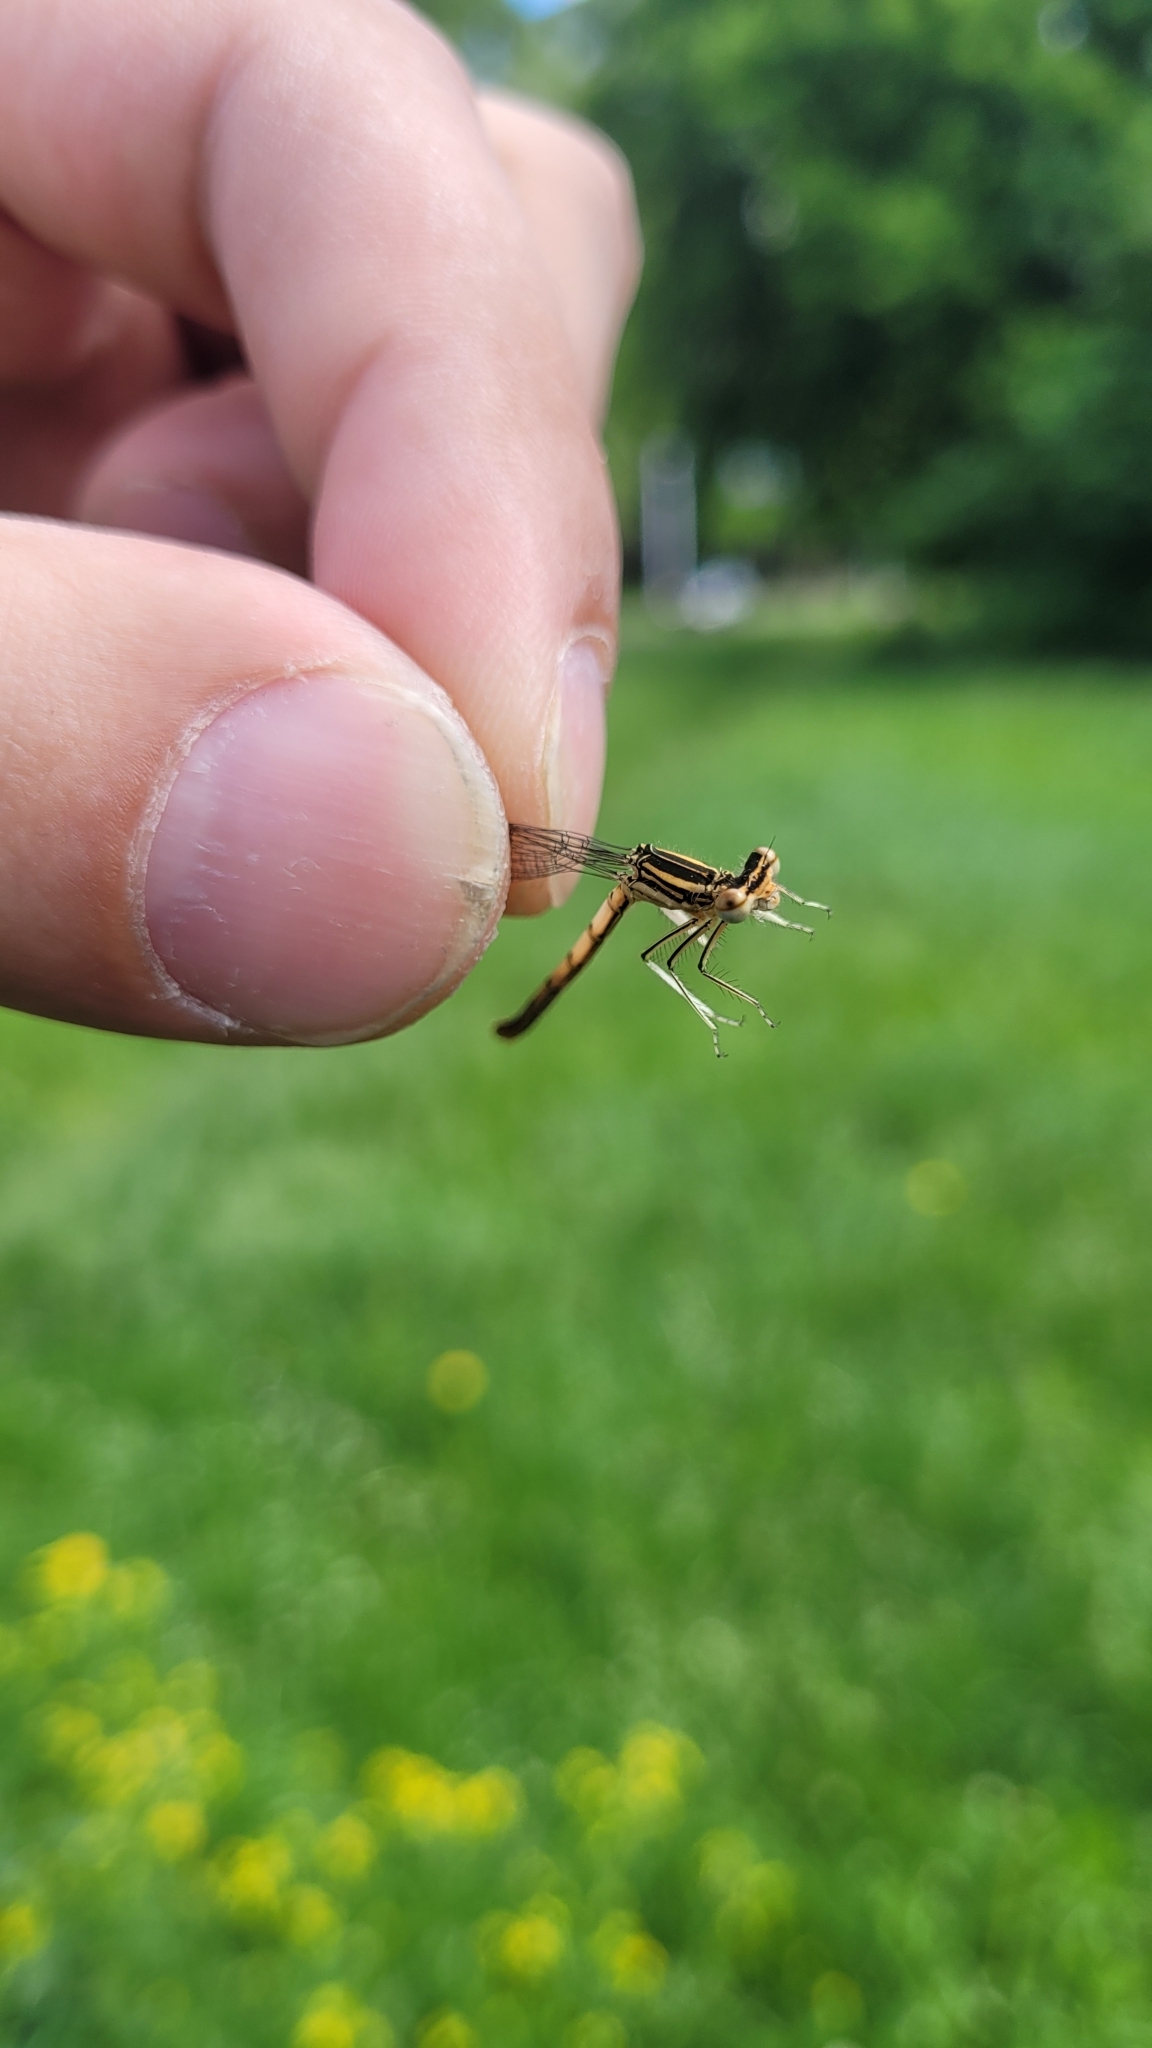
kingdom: Animalia
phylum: Arthropoda
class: Insecta
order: Odonata
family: Platycnemididae
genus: Platycnemis
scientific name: Platycnemis pennipes
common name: White-legged damselfly
